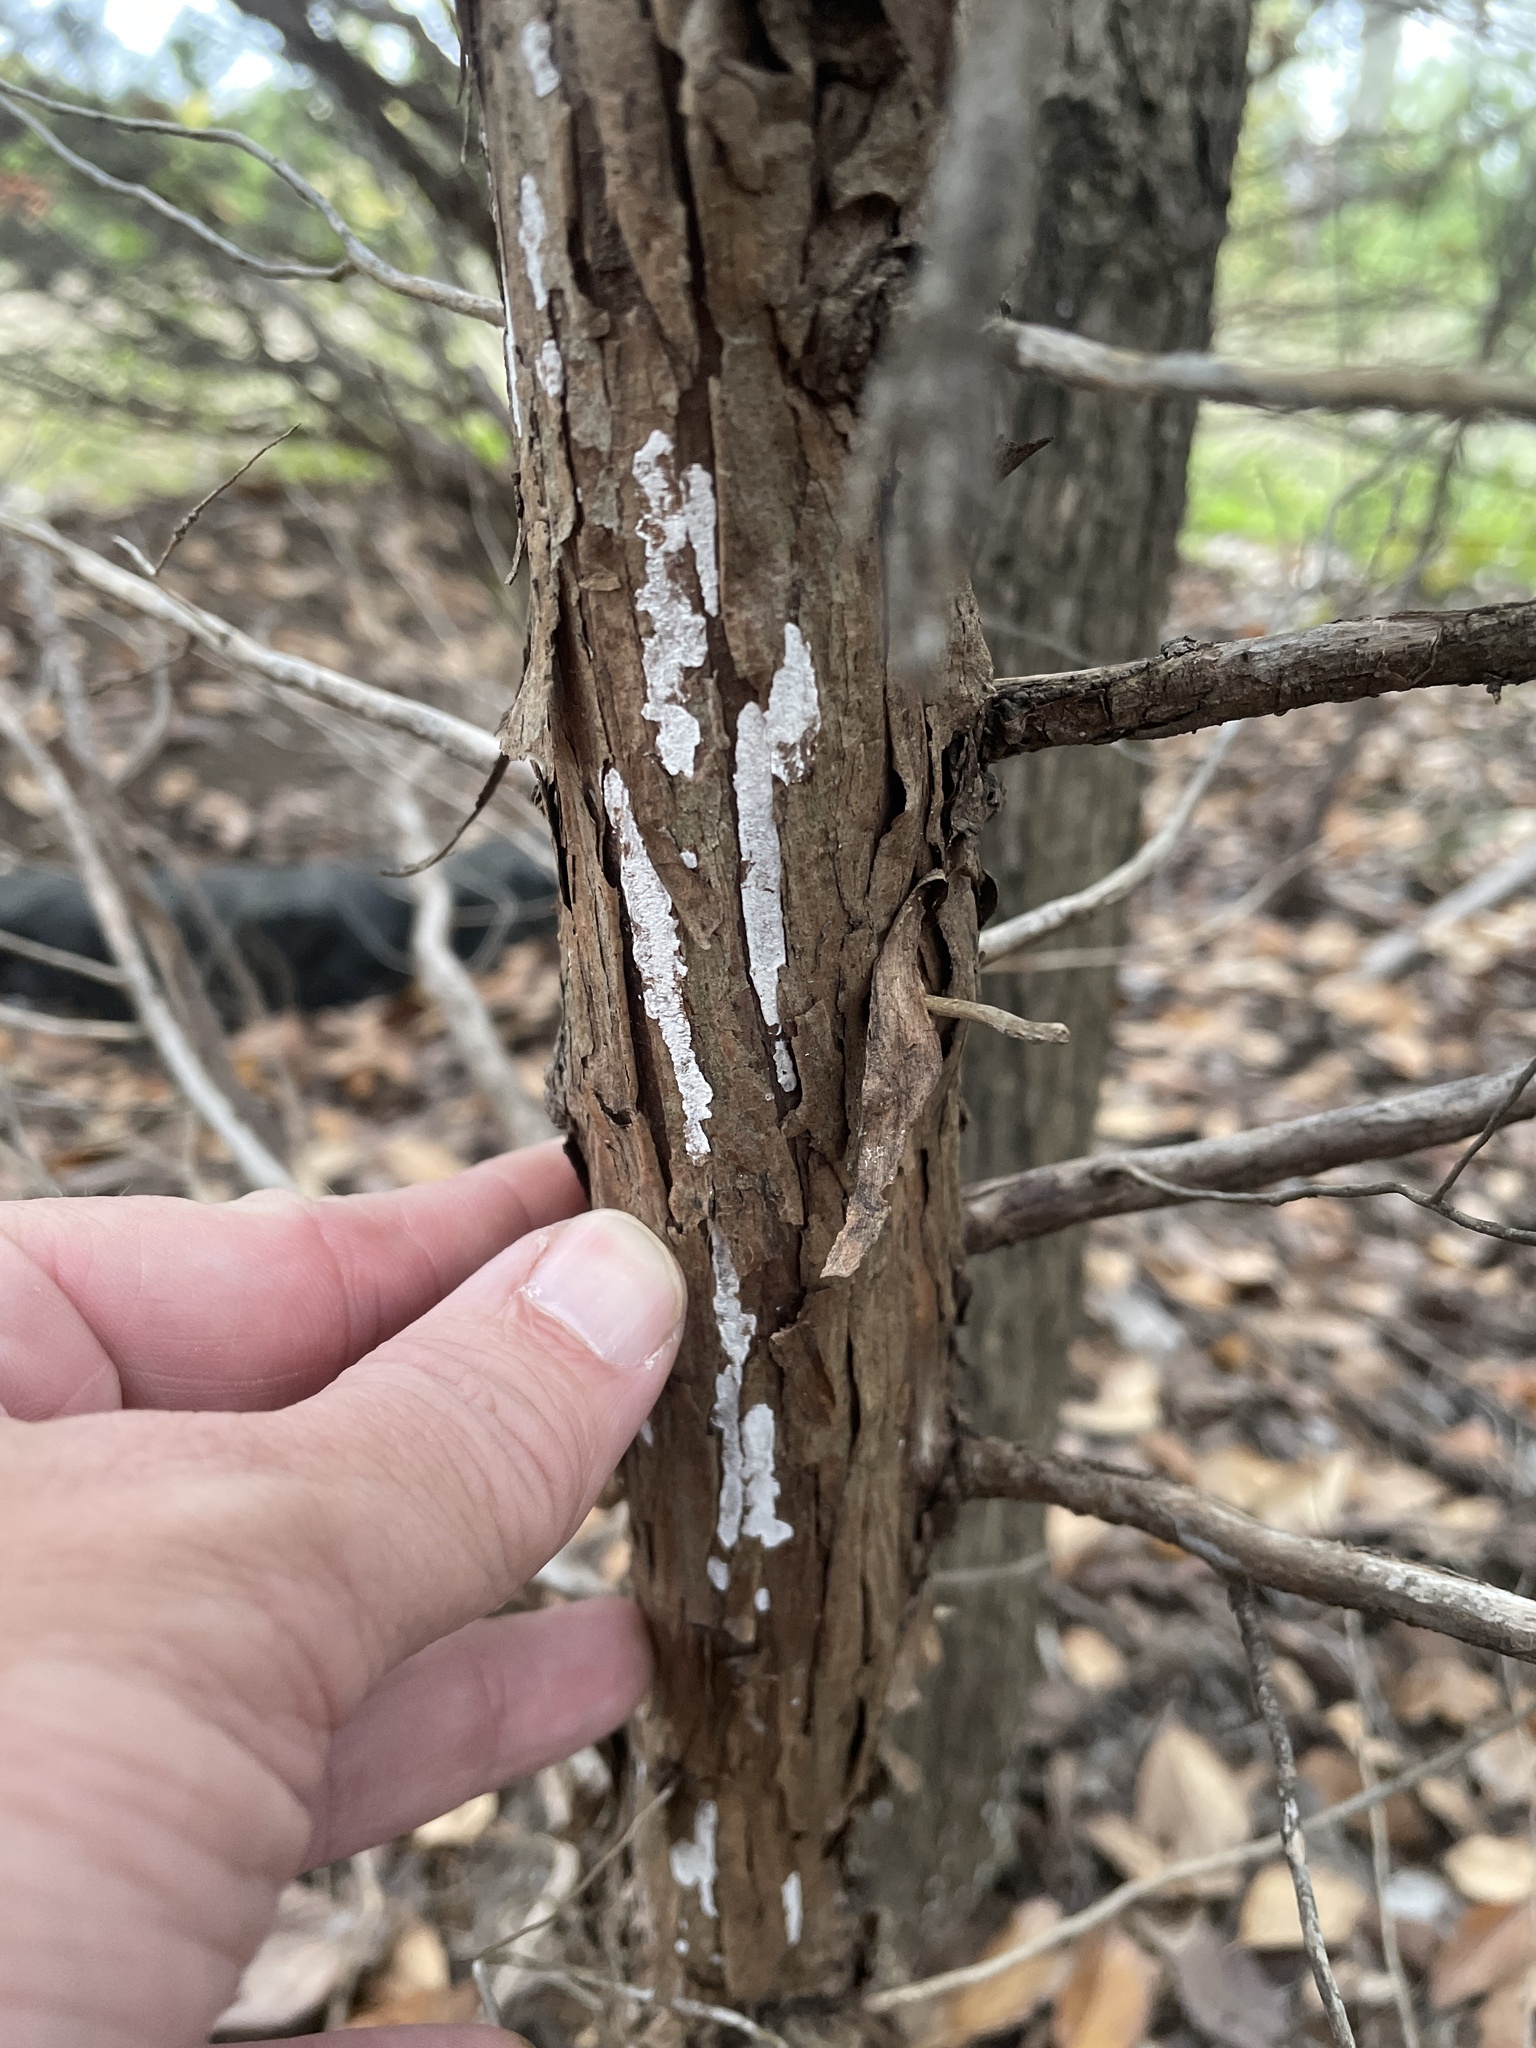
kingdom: Fungi
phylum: Basidiomycota
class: Agaricomycetes
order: Agaricales
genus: Dendrothele
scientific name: Dendrothele nivosa
